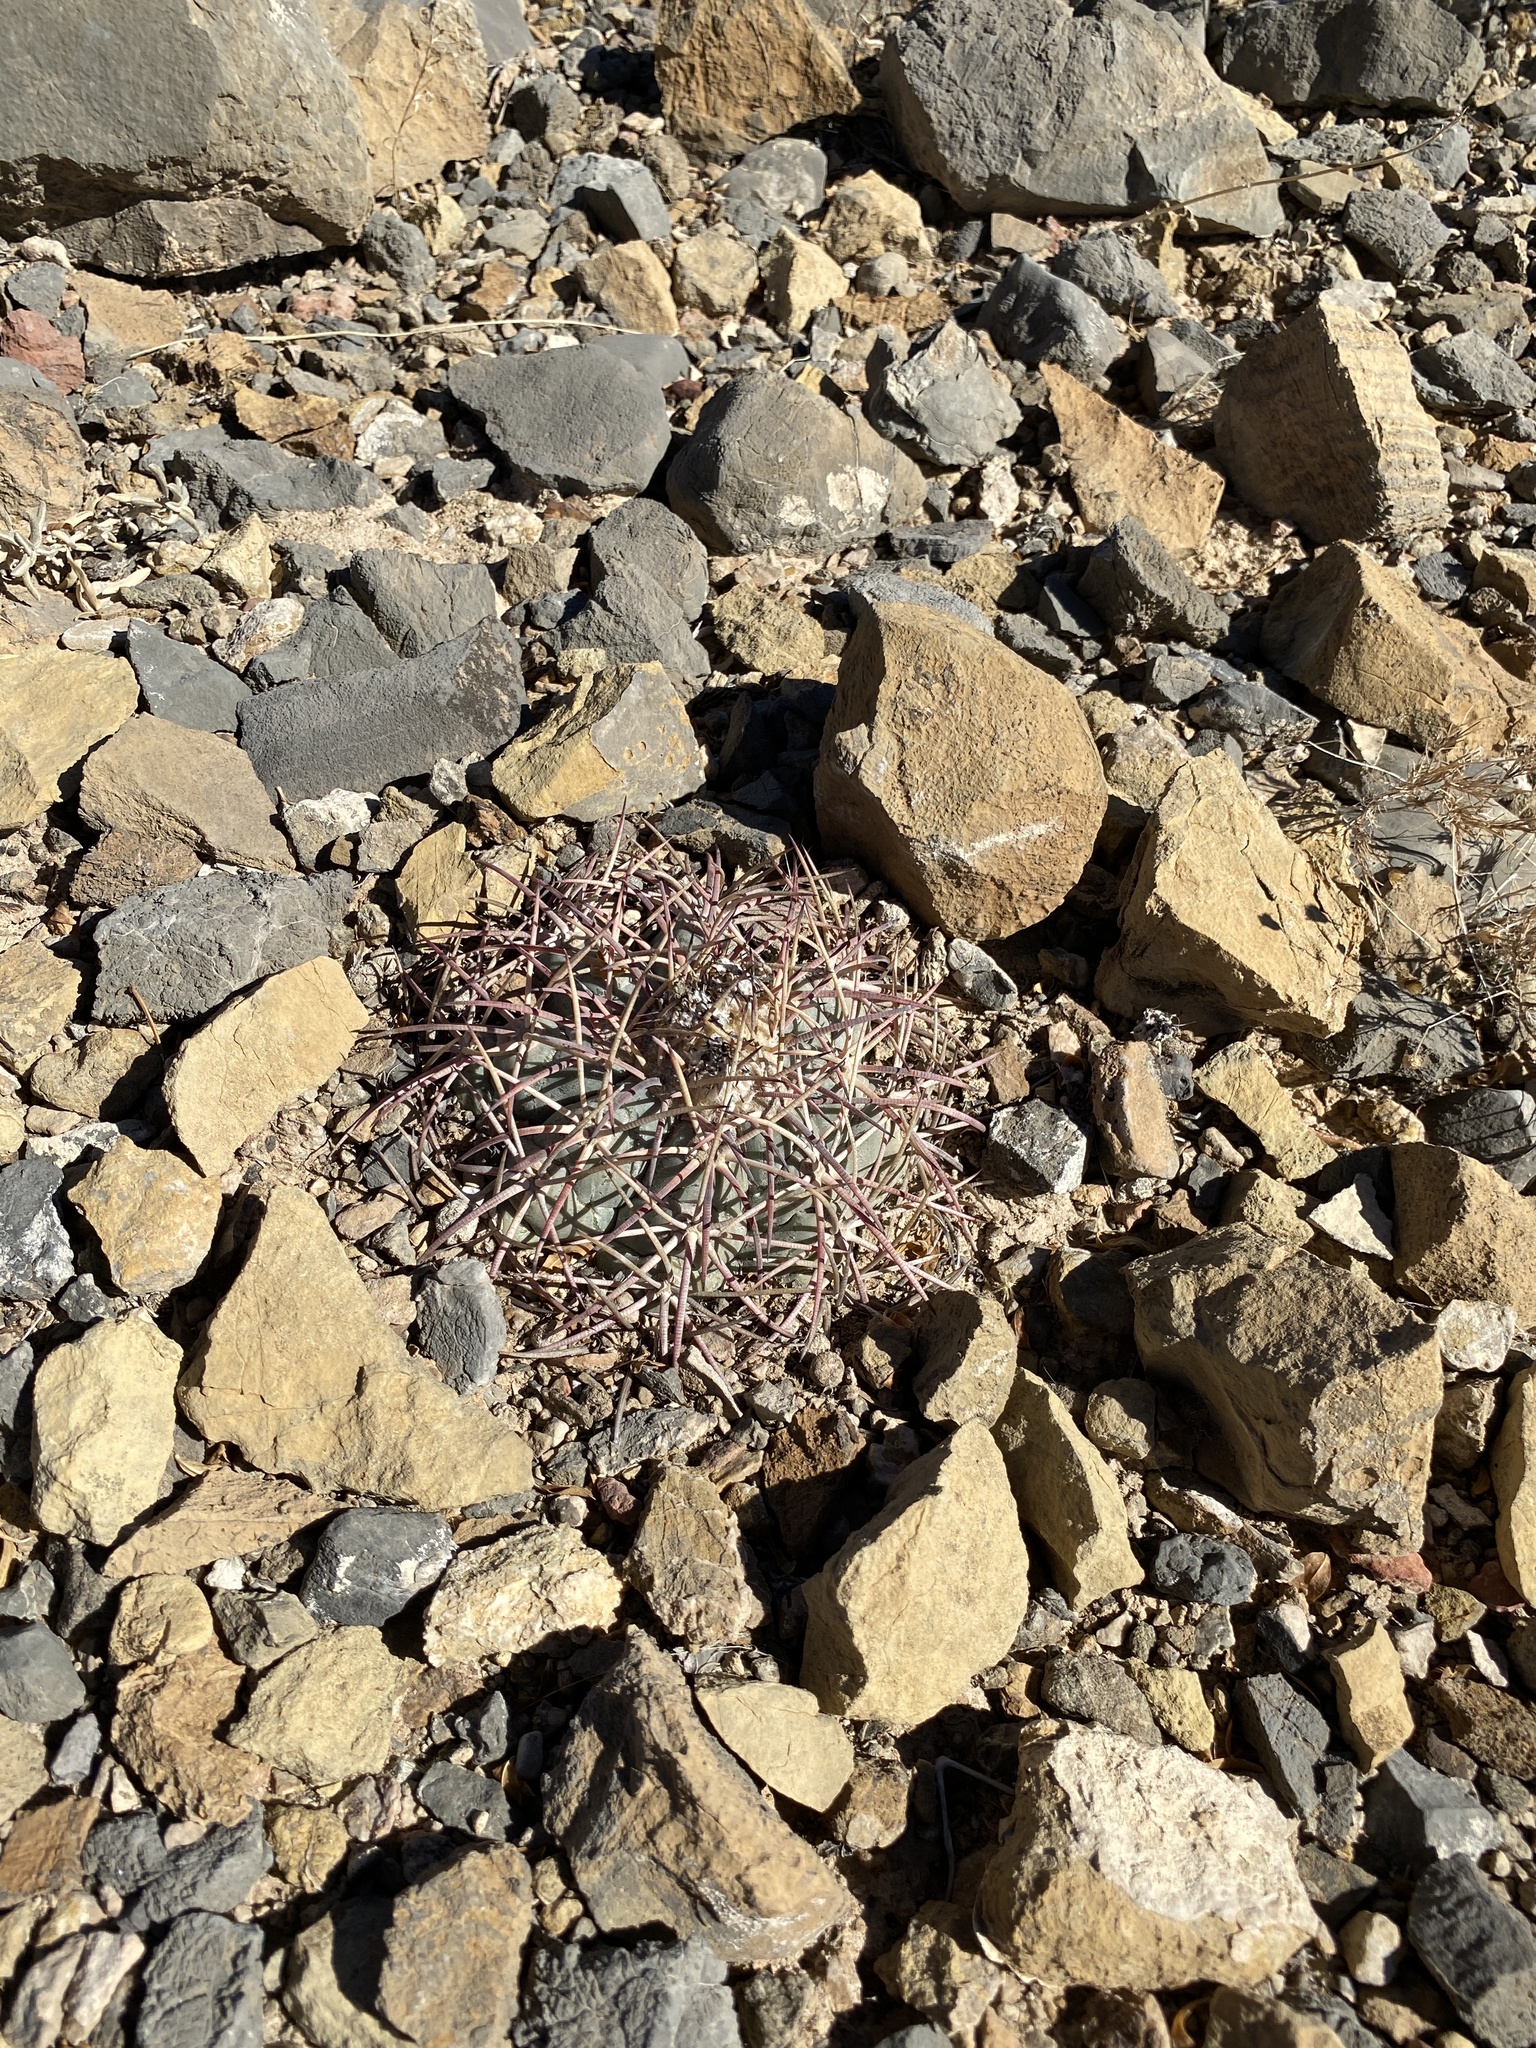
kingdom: Plantae
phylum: Tracheophyta
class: Magnoliopsida
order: Caryophyllales
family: Cactaceae
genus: Echinocactus
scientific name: Echinocactus horizonthalonius
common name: Devilshead
